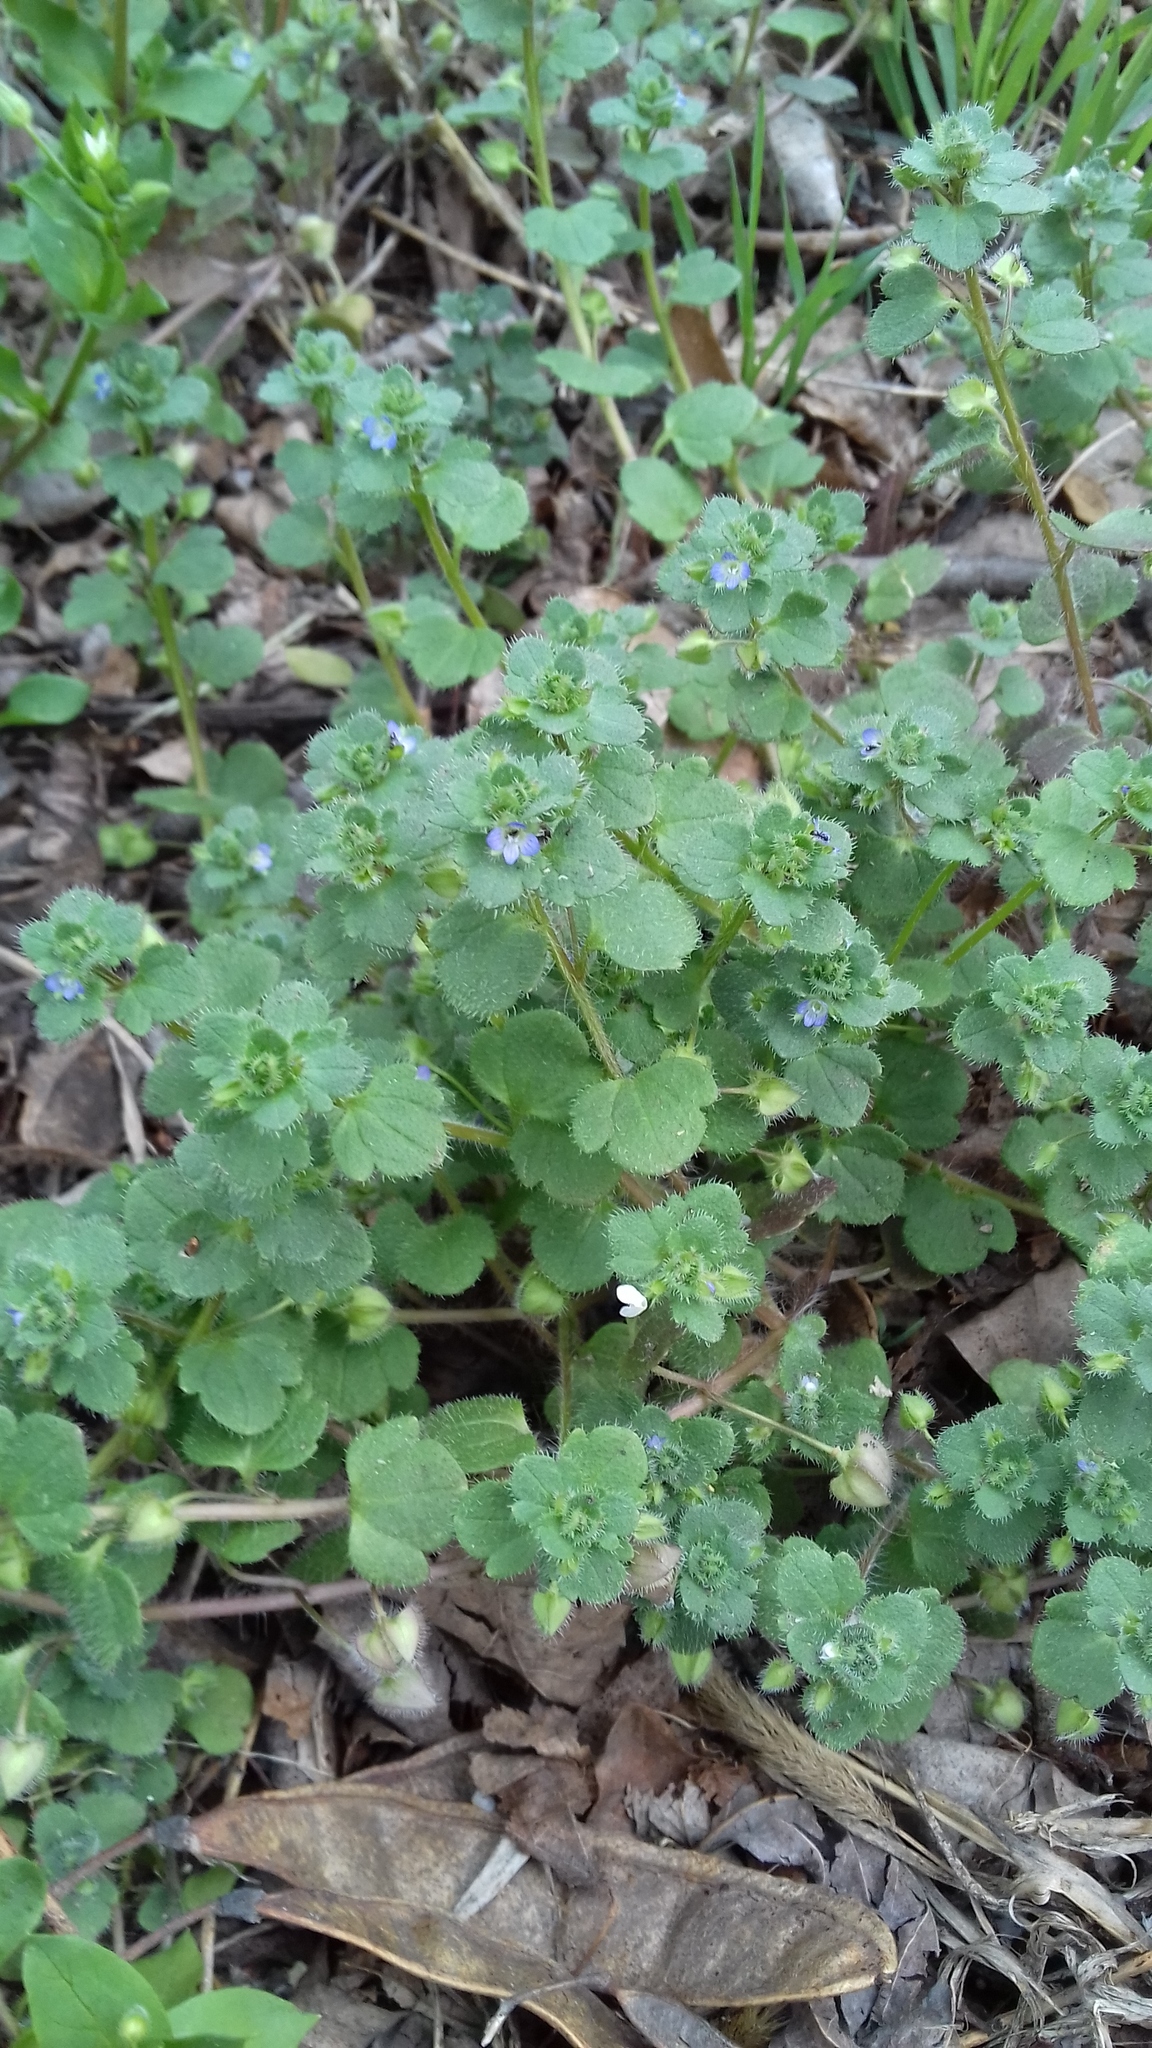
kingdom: Plantae
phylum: Tracheophyta
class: Magnoliopsida
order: Lamiales
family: Plantaginaceae
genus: Veronica
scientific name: Veronica hederifolia
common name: Ivy-leaved speedwell
